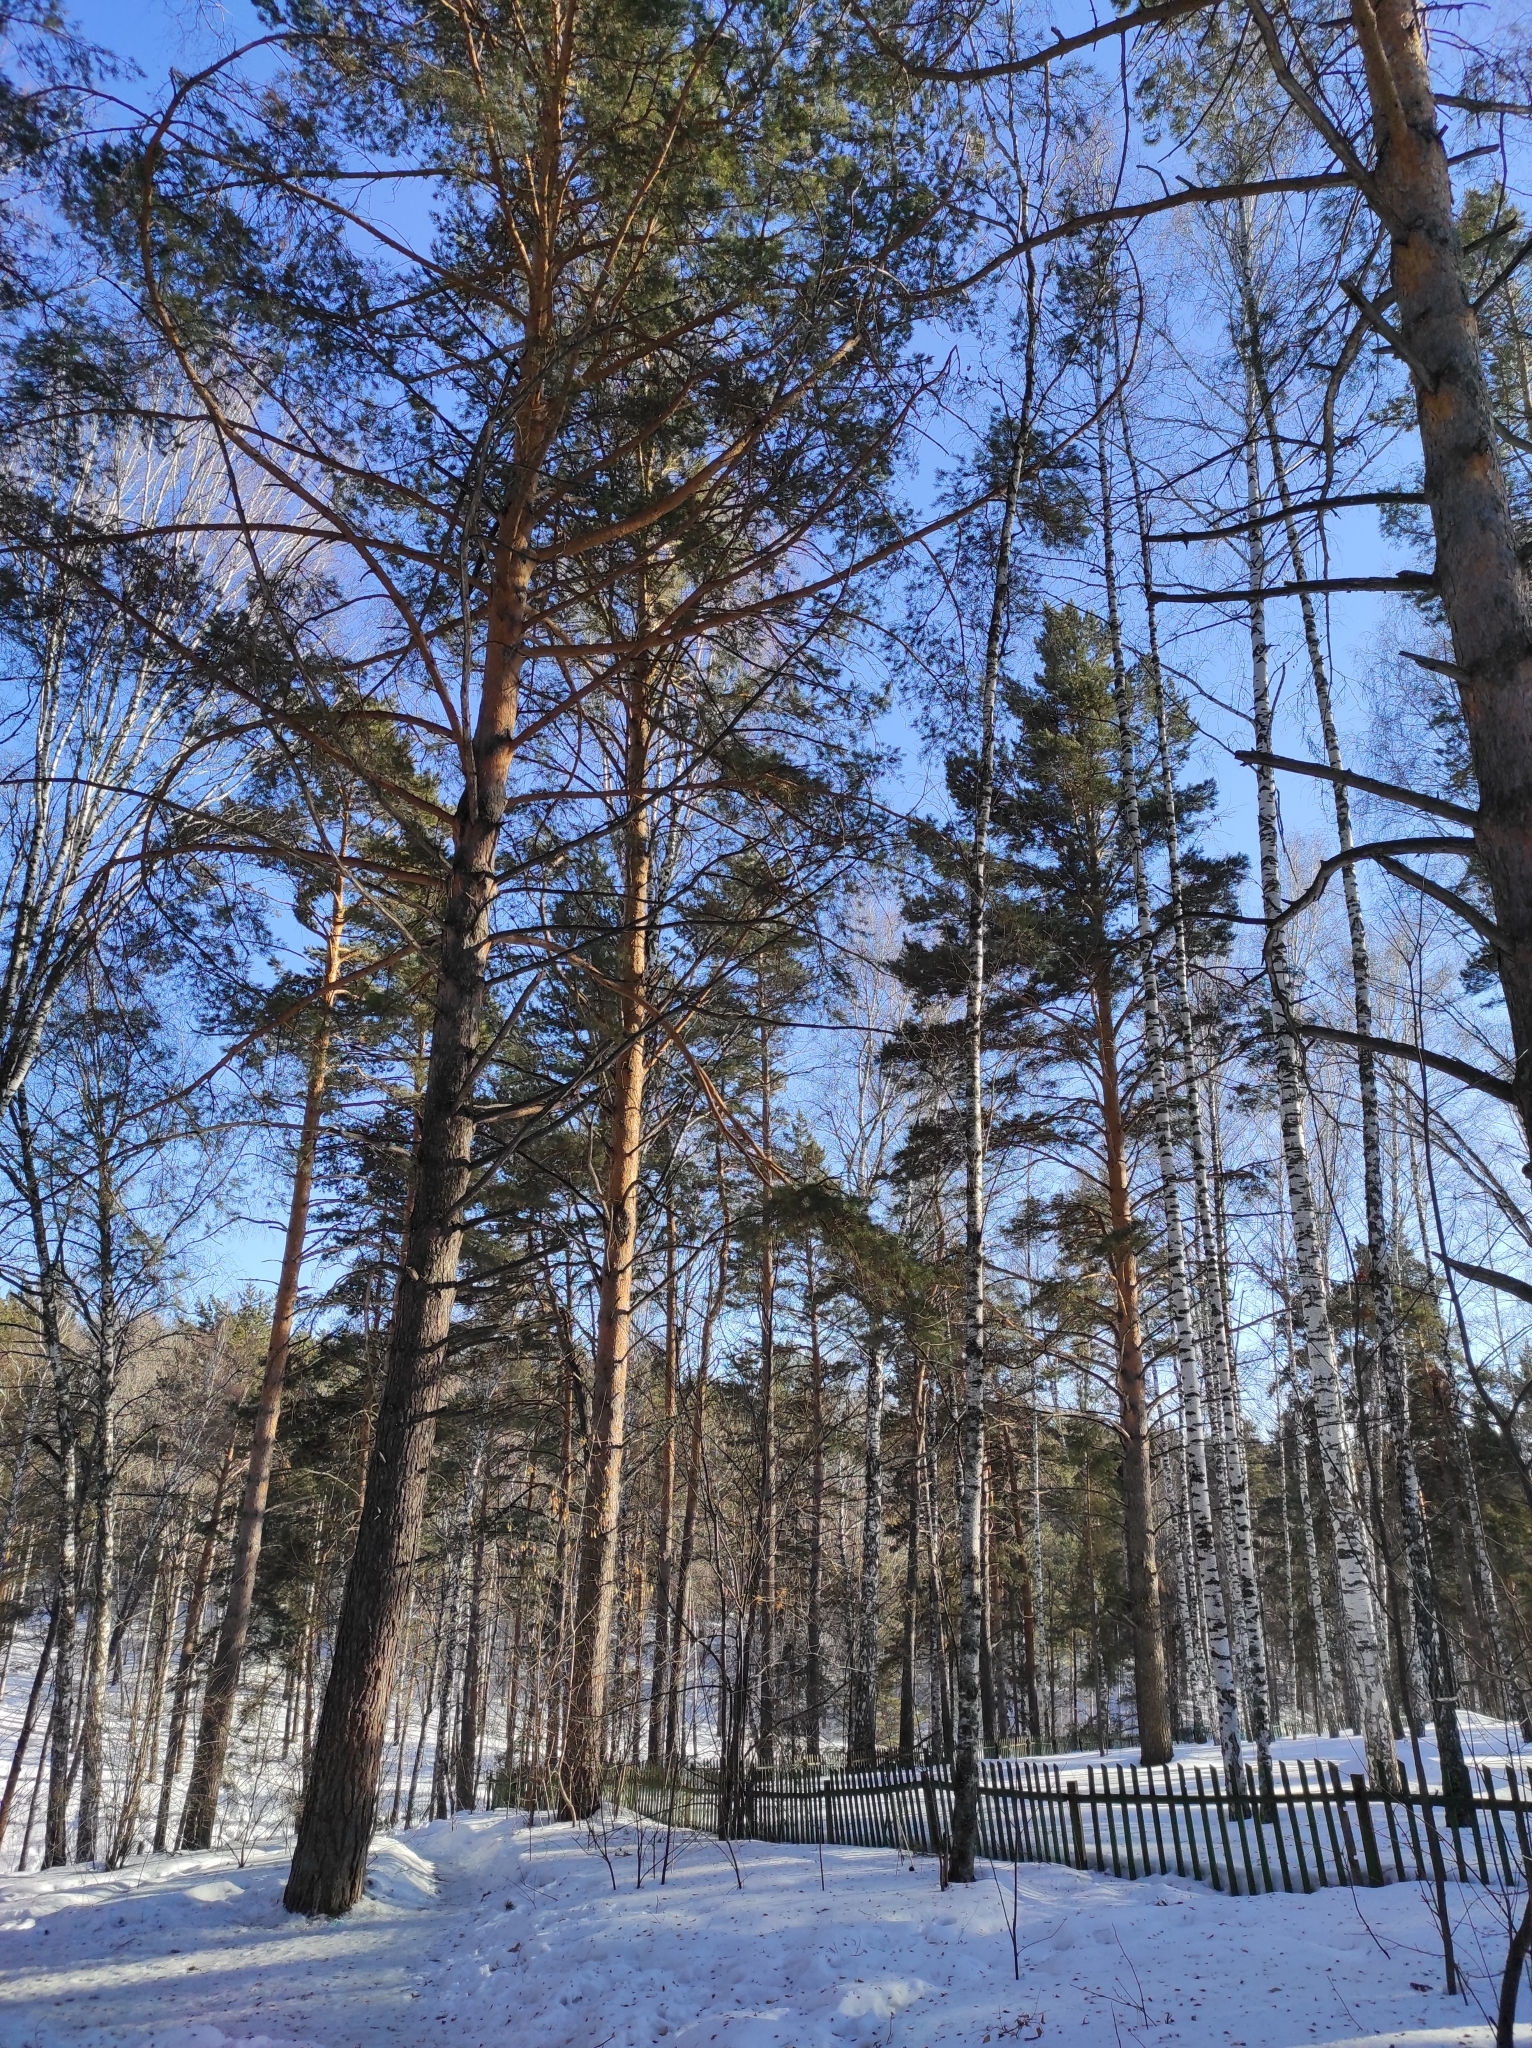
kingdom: Plantae
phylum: Tracheophyta
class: Pinopsida
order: Pinales
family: Pinaceae
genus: Pinus
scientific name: Pinus sylvestris
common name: Scots pine
